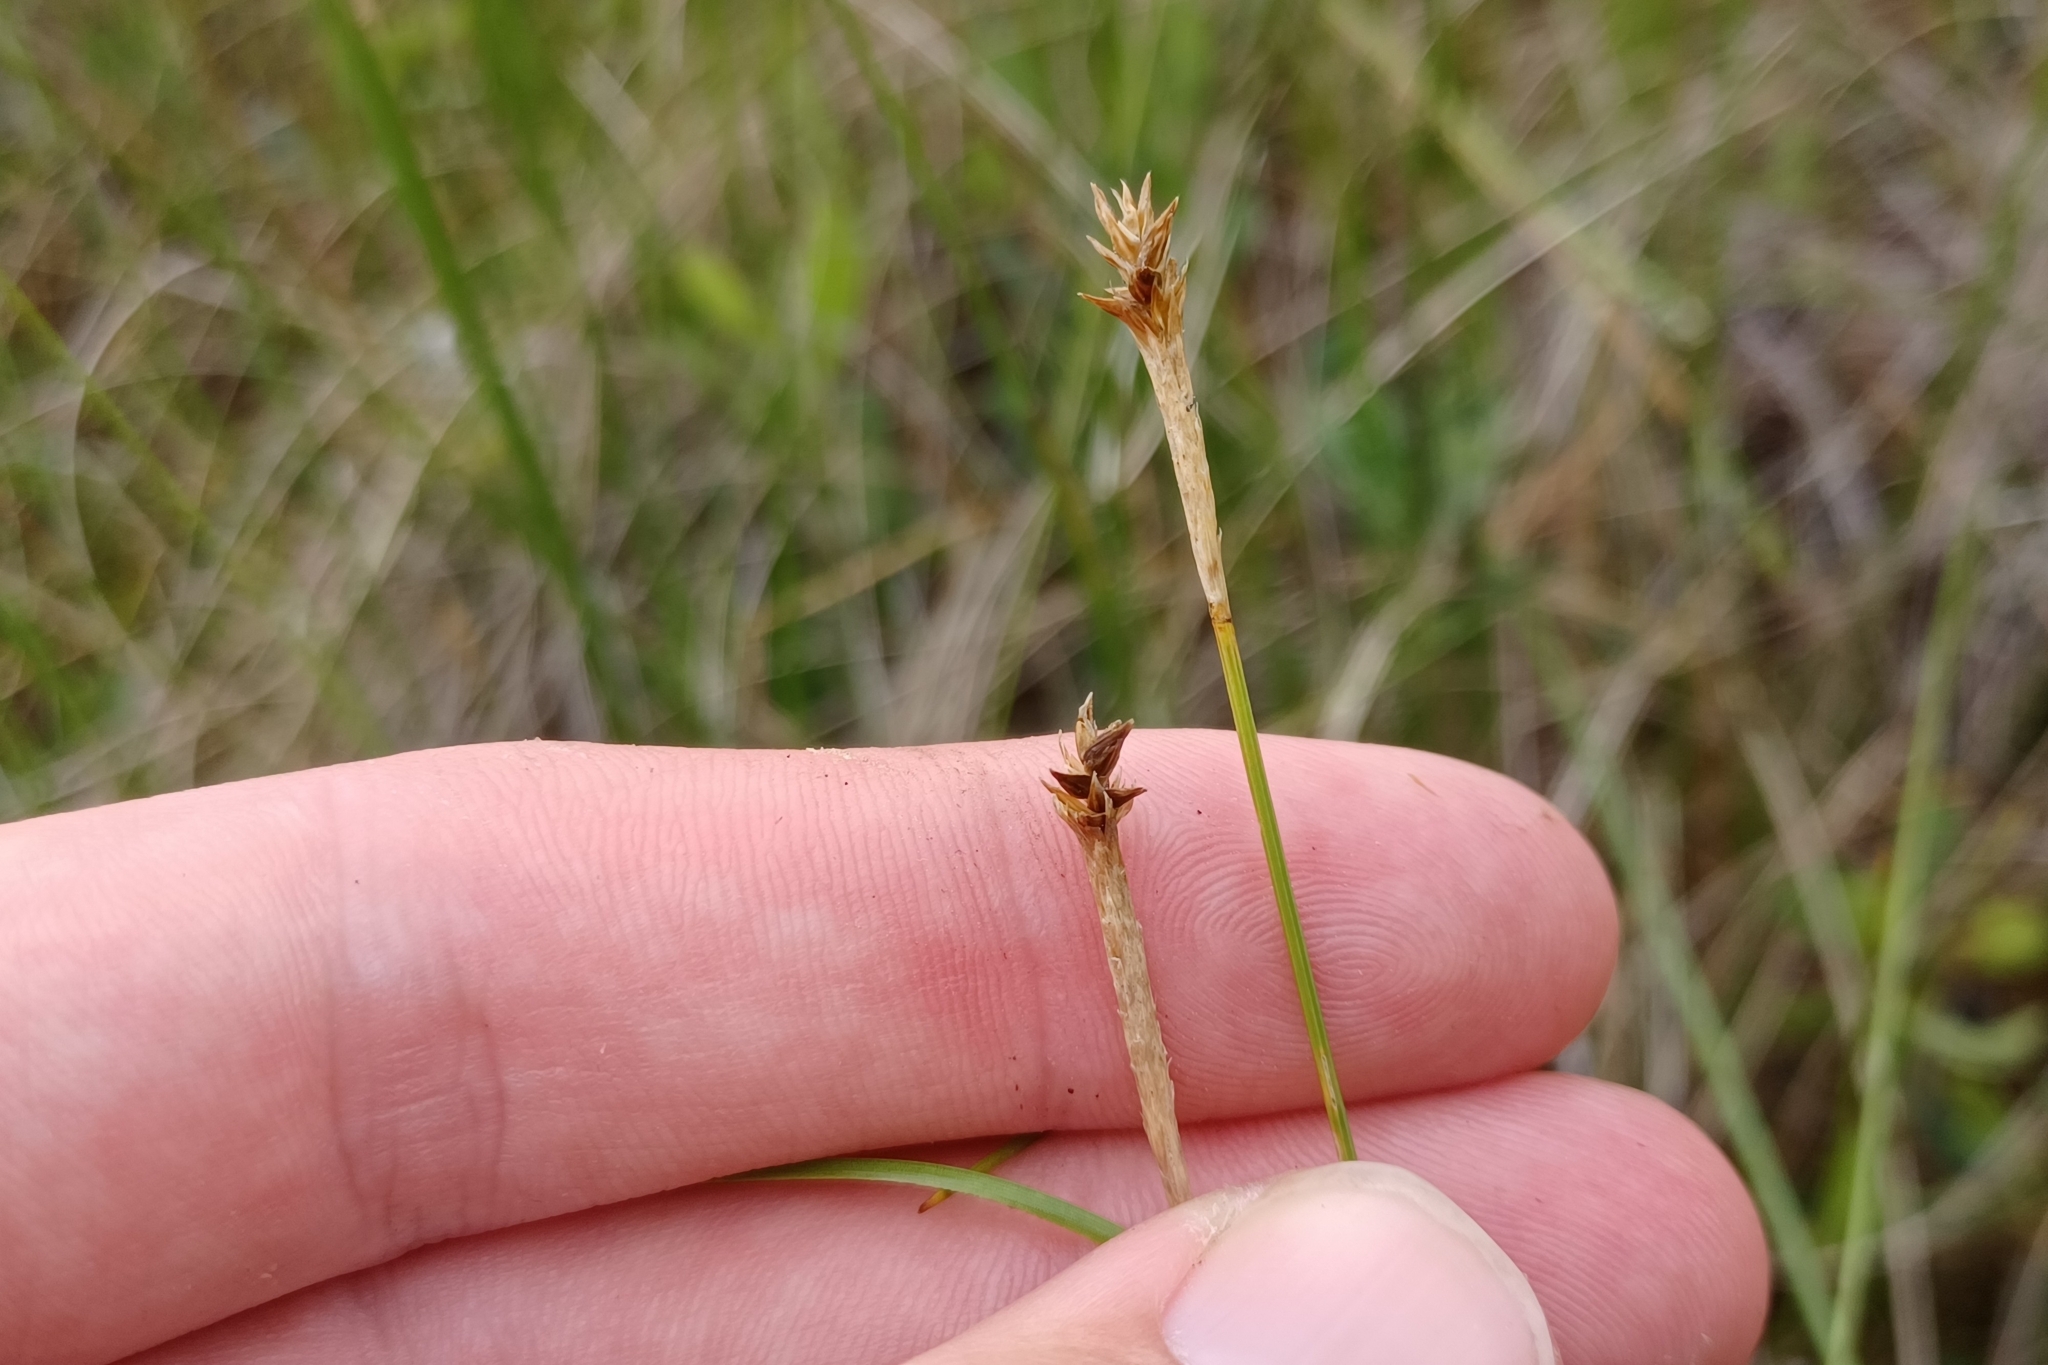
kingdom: Plantae
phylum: Tracheophyta
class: Liliopsida
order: Poales
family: Cyperaceae
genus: Carex
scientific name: Carex exilis
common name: Coastal sedge
